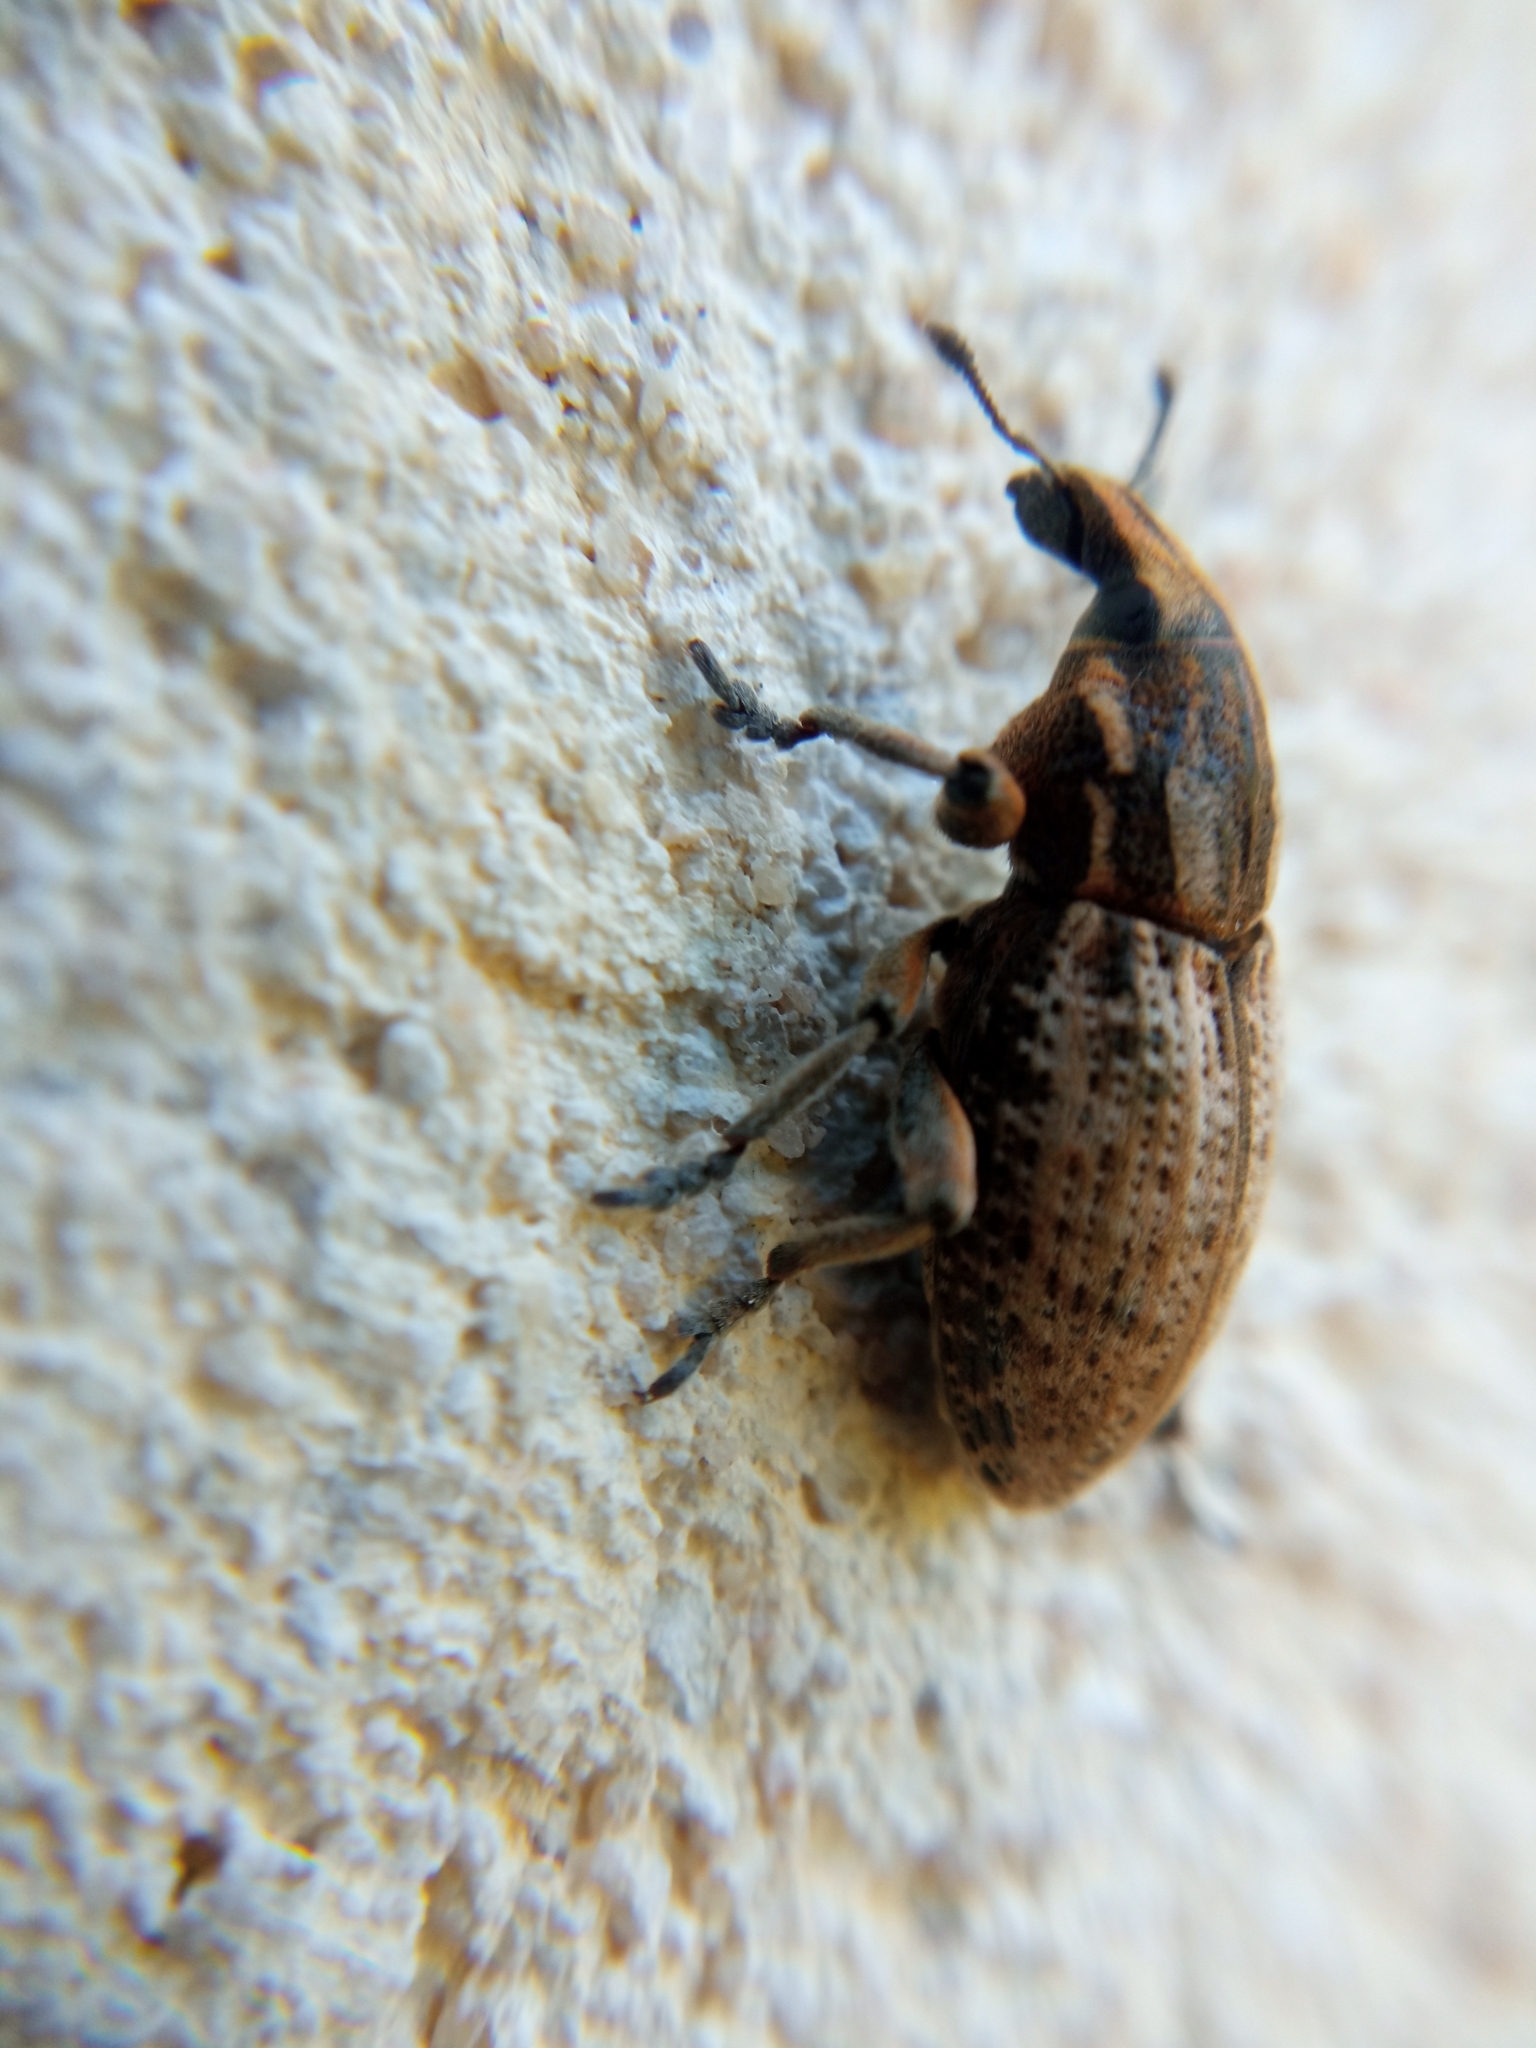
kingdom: Animalia
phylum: Arthropoda
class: Insecta
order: Coleoptera
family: Curculionidae
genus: Pseudocleonus
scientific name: Pseudocleonus cinereus
